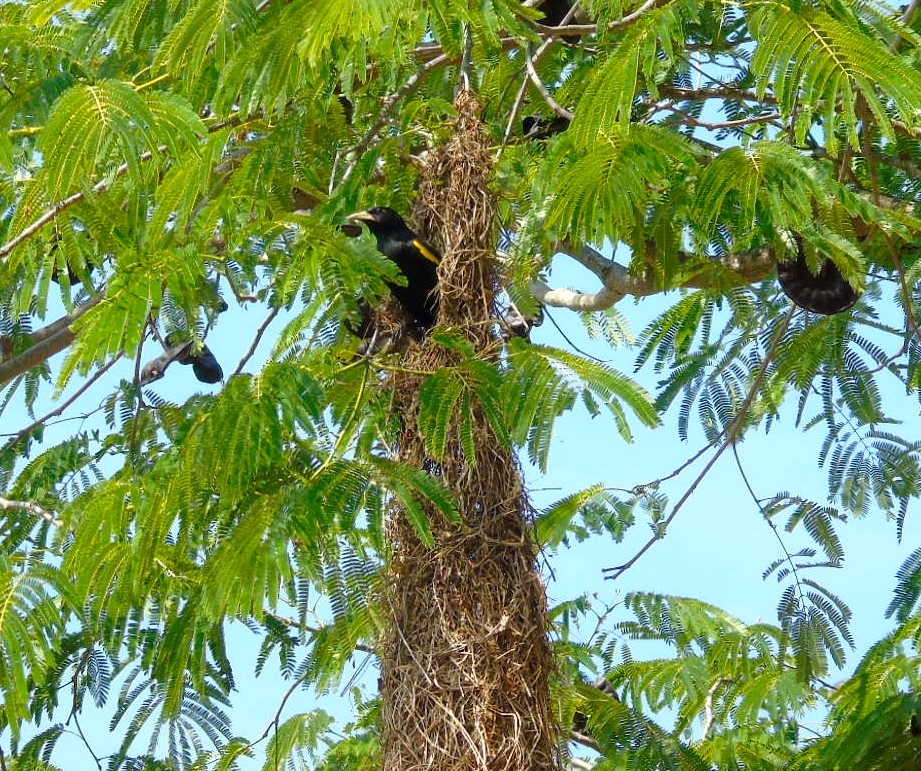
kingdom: Animalia
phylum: Chordata
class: Aves
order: Passeriformes
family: Icteridae
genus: Cacicus
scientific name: Cacicus melanicterus
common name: Yellow-winged cacique
